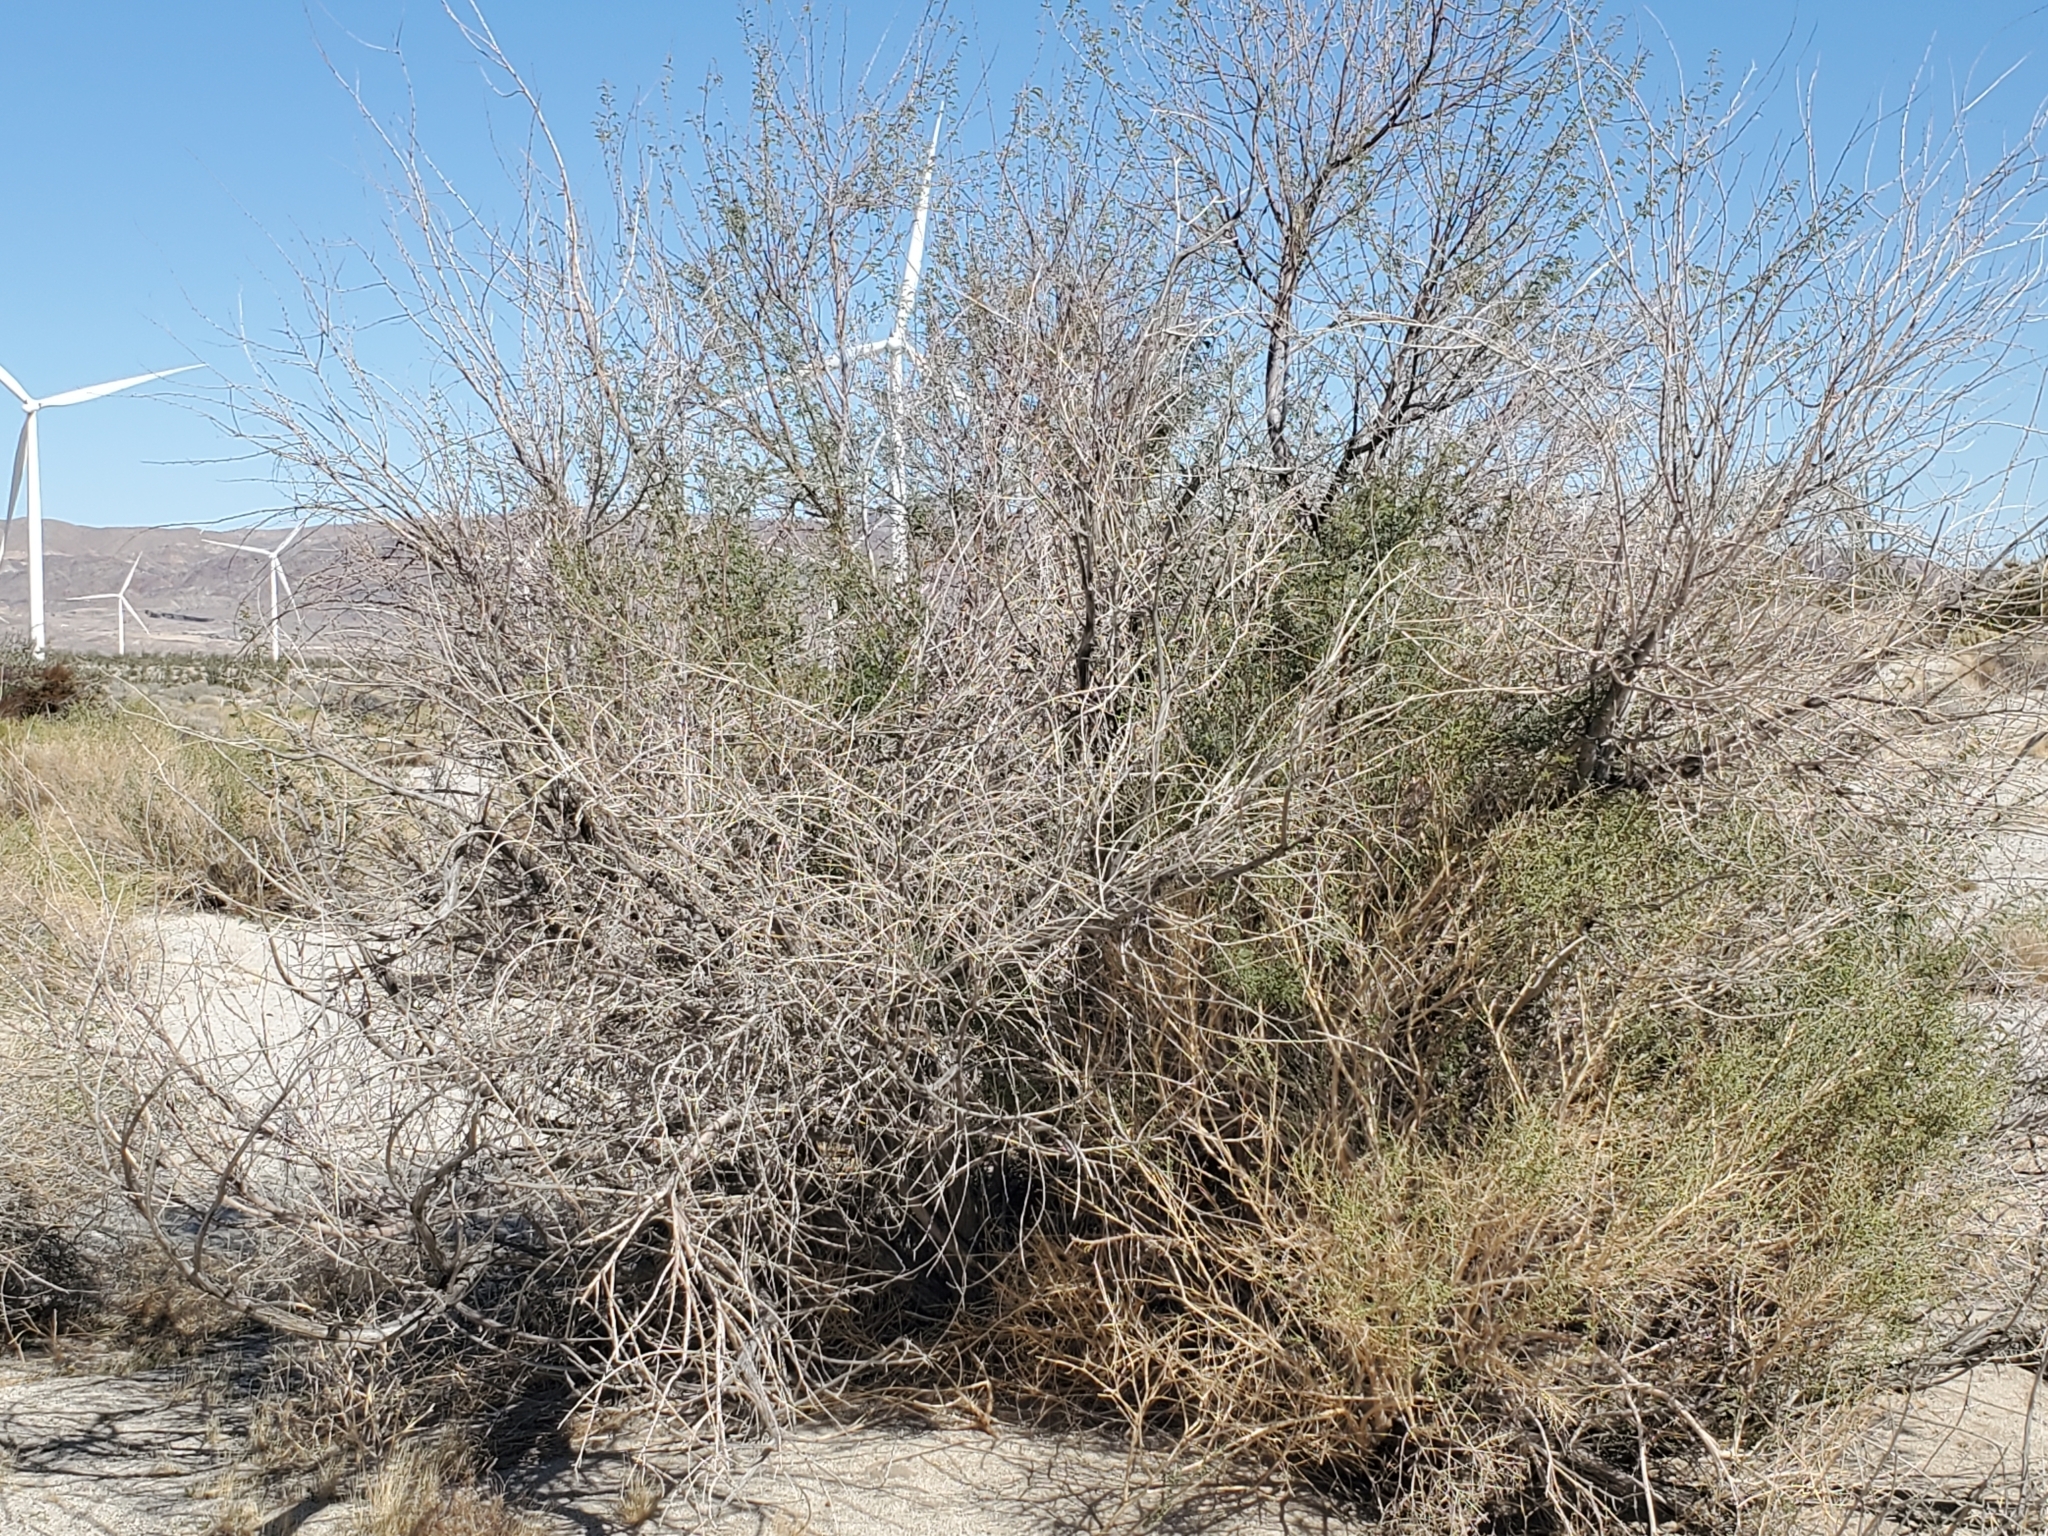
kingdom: Plantae
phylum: Tracheophyta
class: Magnoliopsida
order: Fabales
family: Fabaceae
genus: Senegalia
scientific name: Senegalia greggii
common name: Texas-mimosa
